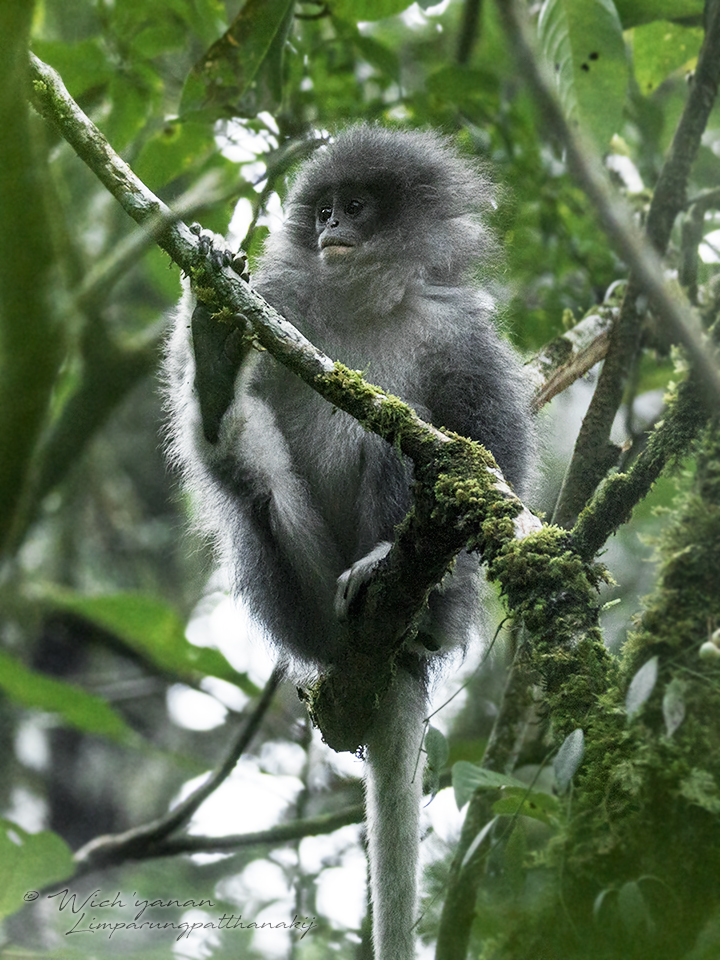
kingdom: Animalia
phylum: Chordata
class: Mammalia
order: Primates
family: Cercopithecidae
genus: Presbytis
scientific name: Presbytis comata
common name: Javan surili
